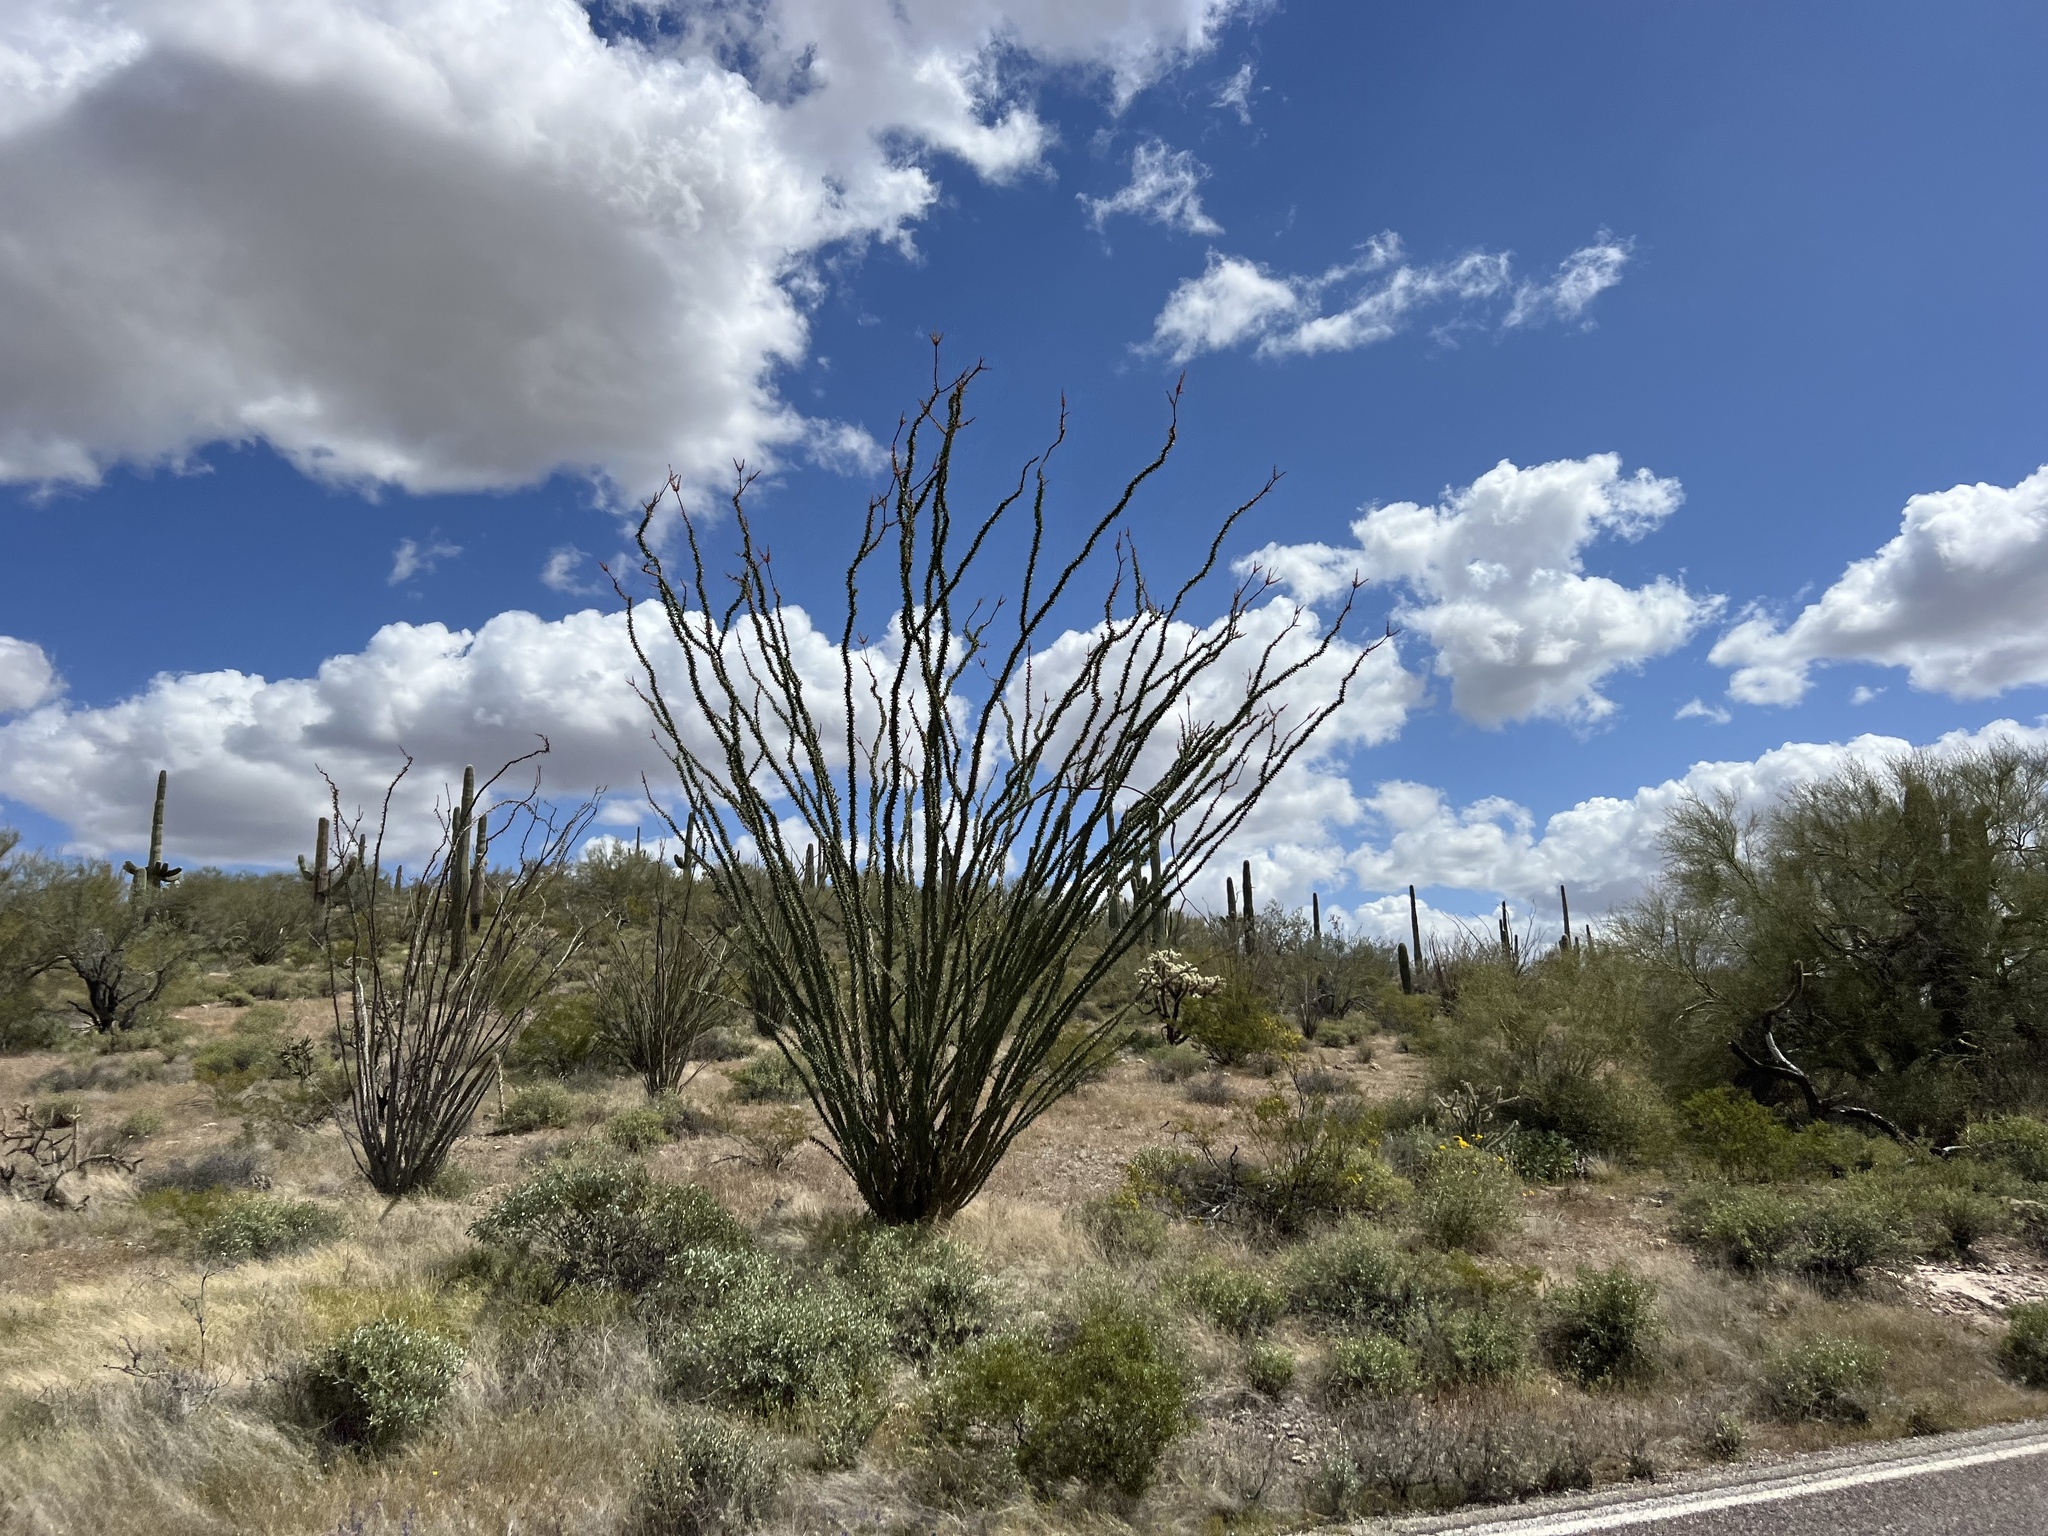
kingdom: Plantae
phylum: Tracheophyta
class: Magnoliopsida
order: Ericales
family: Fouquieriaceae
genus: Fouquieria
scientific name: Fouquieria splendens
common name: Vine-cactus
